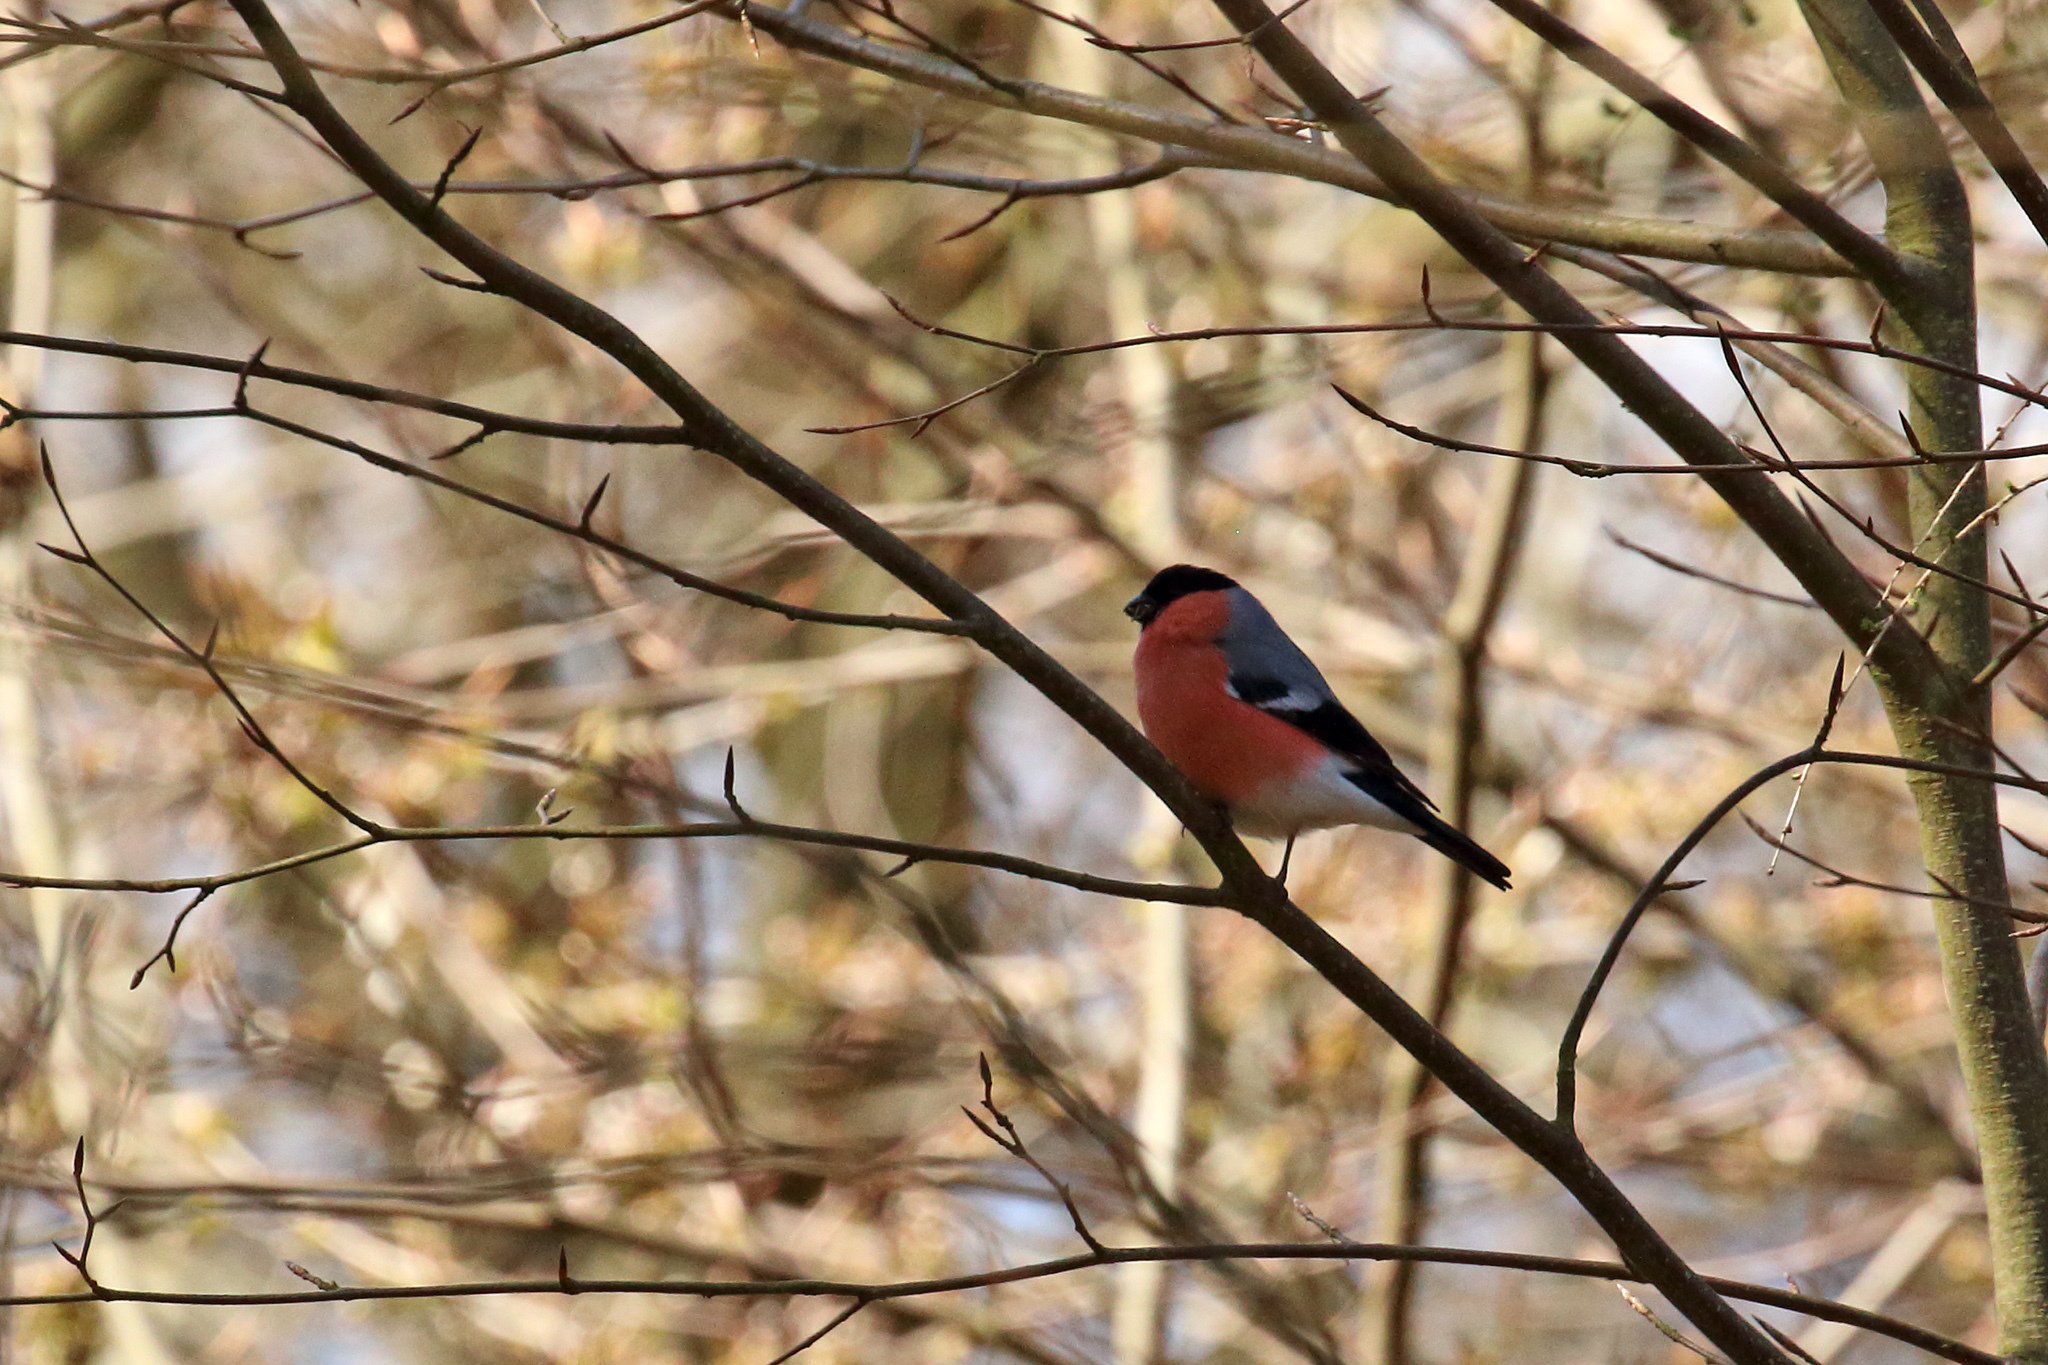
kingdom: Animalia
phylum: Chordata
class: Aves
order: Passeriformes
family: Fringillidae
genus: Pyrrhula
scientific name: Pyrrhula pyrrhula
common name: Eurasian bullfinch
